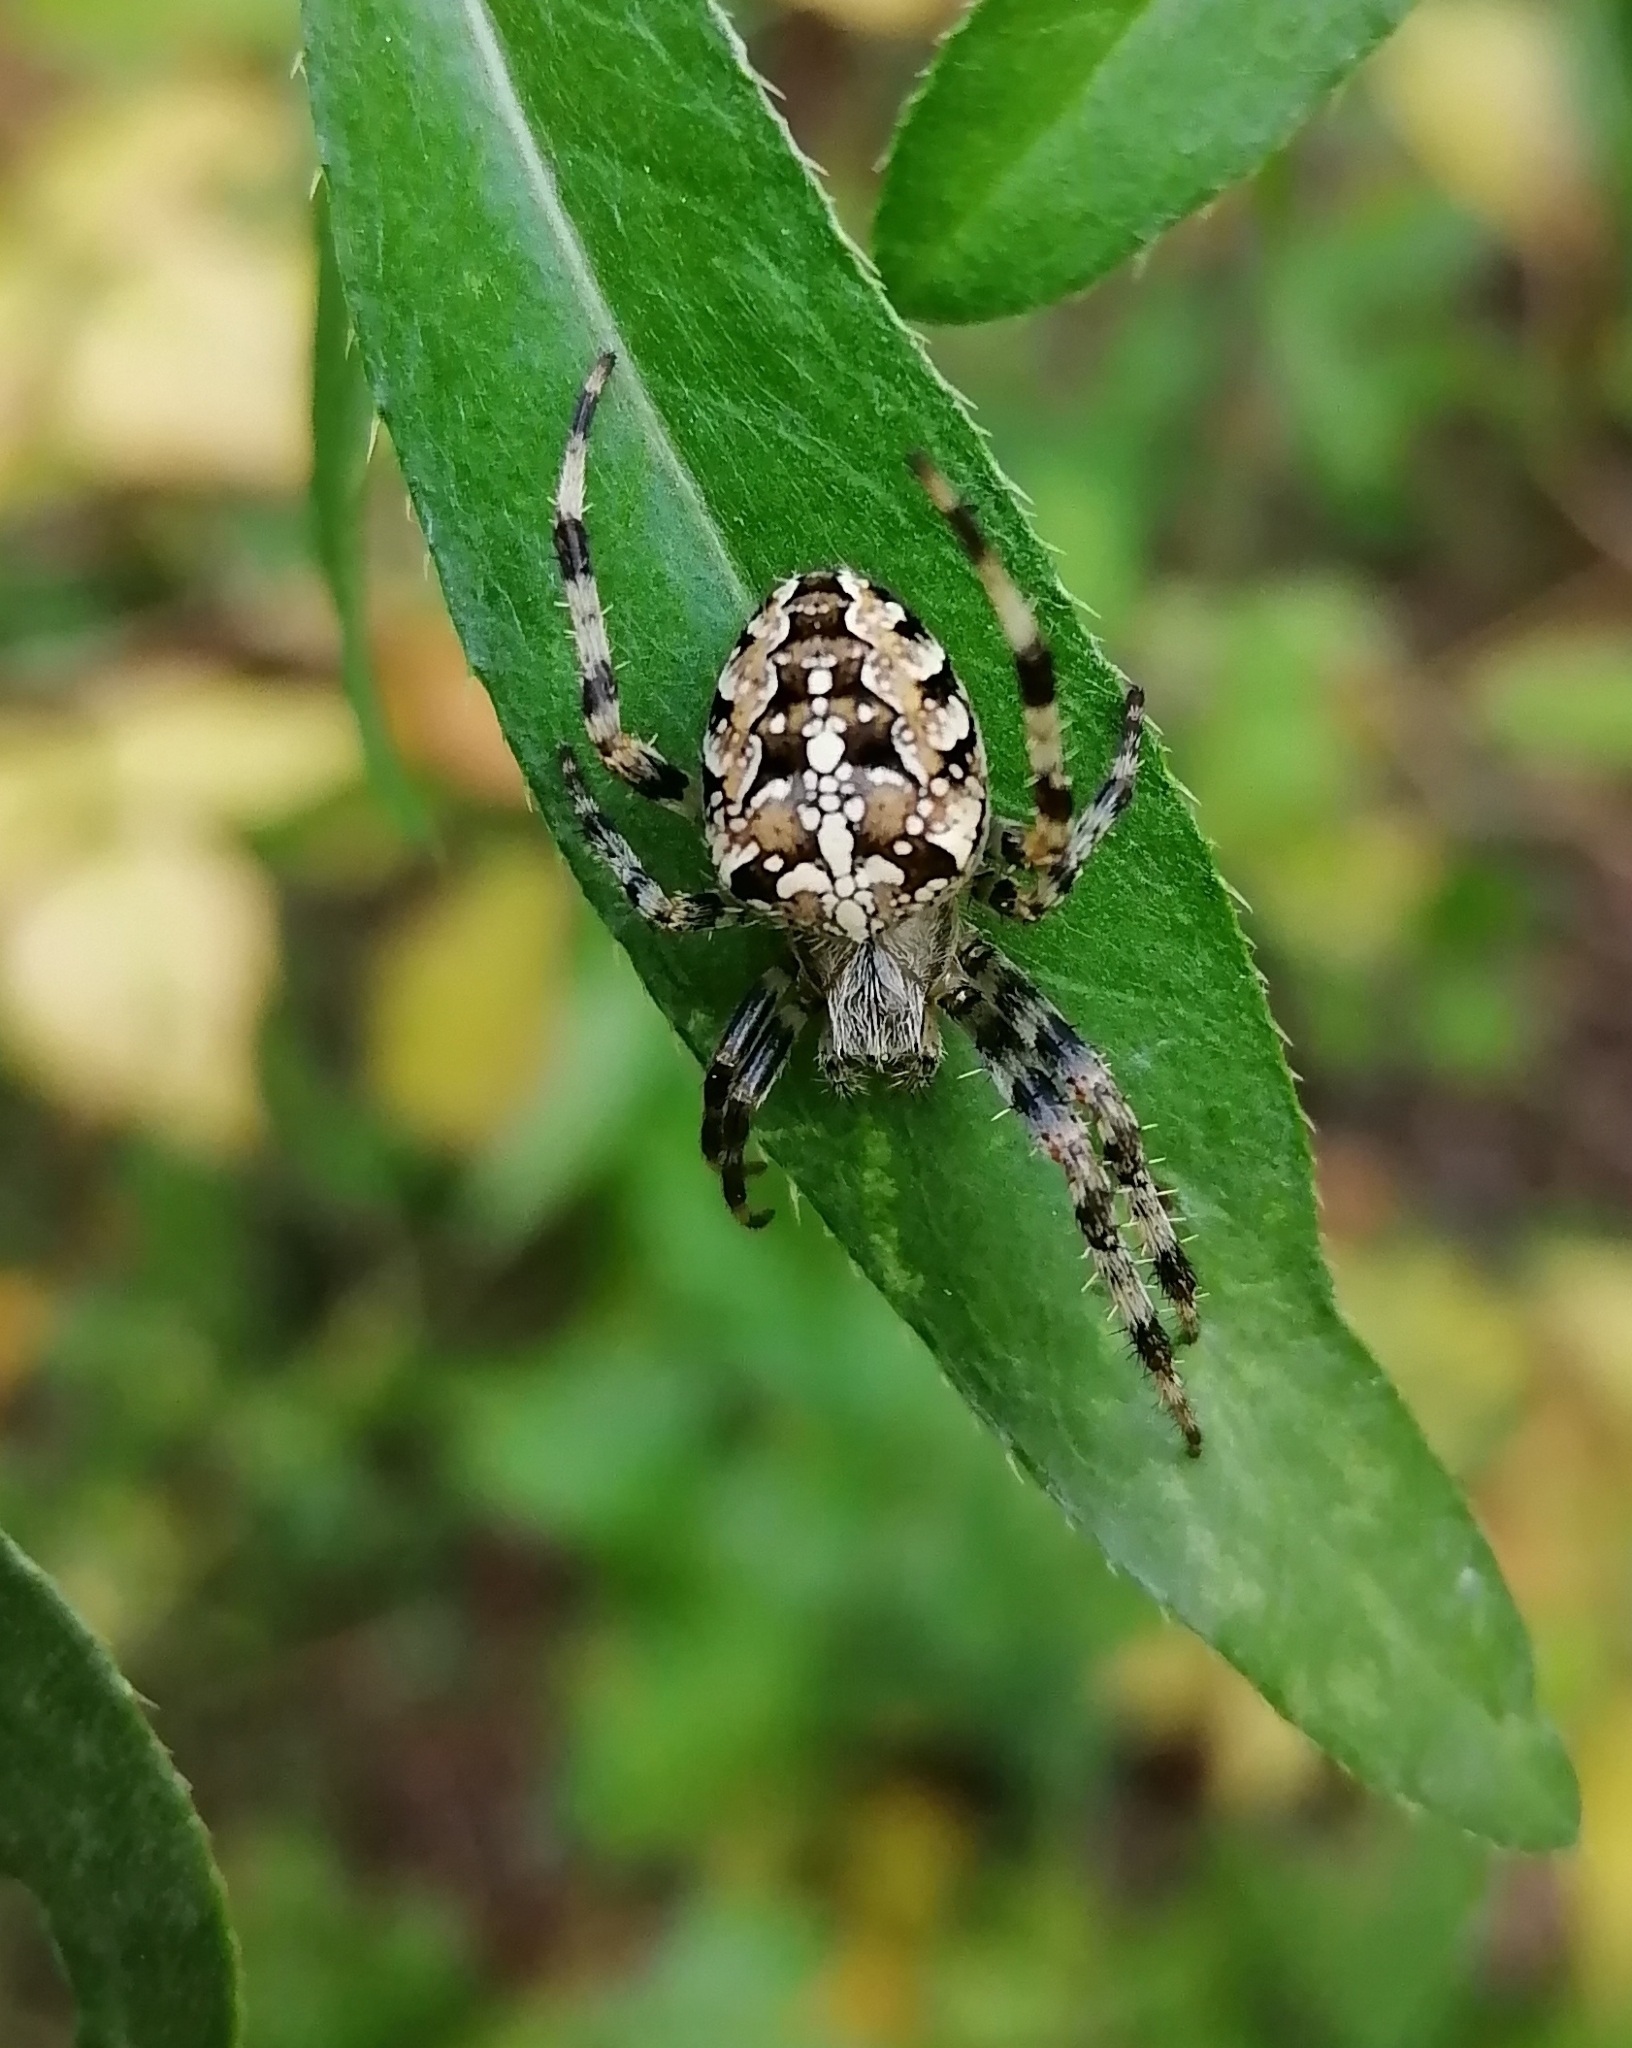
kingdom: Animalia
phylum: Arthropoda
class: Arachnida
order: Araneae
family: Araneidae
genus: Araneus
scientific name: Araneus diadematus
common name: Cross orbweaver
